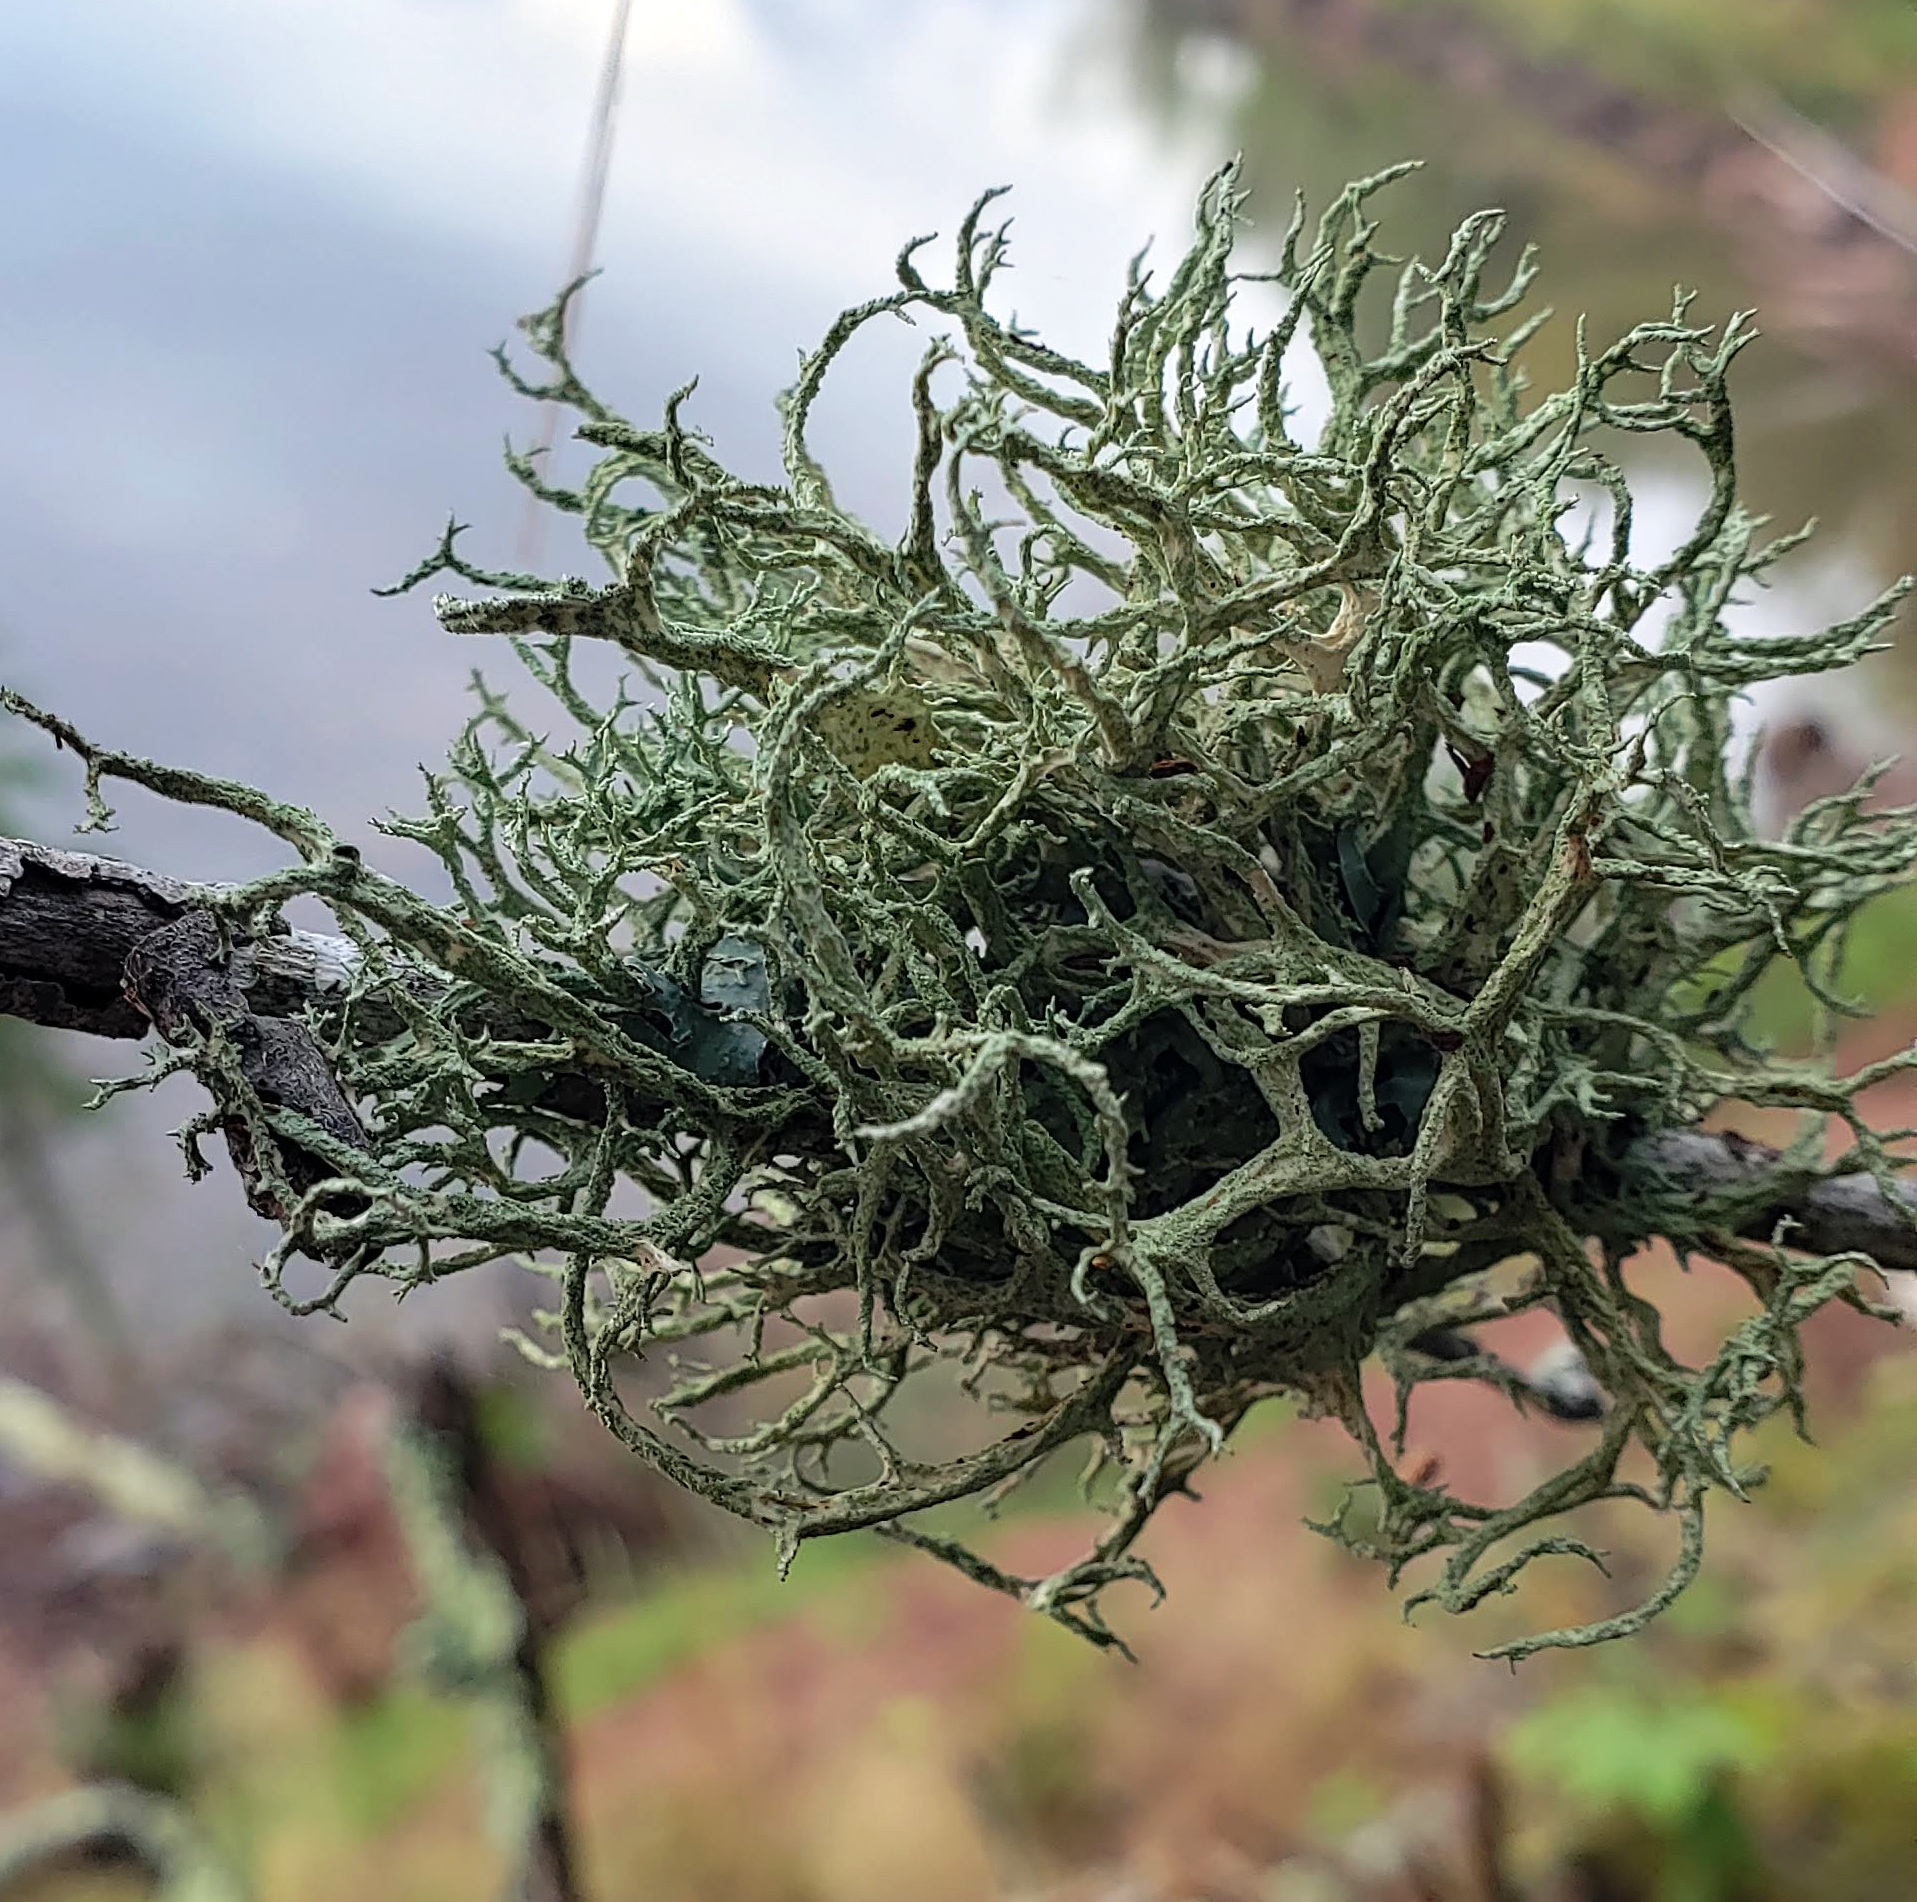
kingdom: Fungi
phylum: Ascomycota
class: Lecanoromycetes
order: Lecanorales
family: Parmeliaceae
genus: Evernia
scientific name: Evernia mesomorpha
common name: Boreal oak moss lichen
